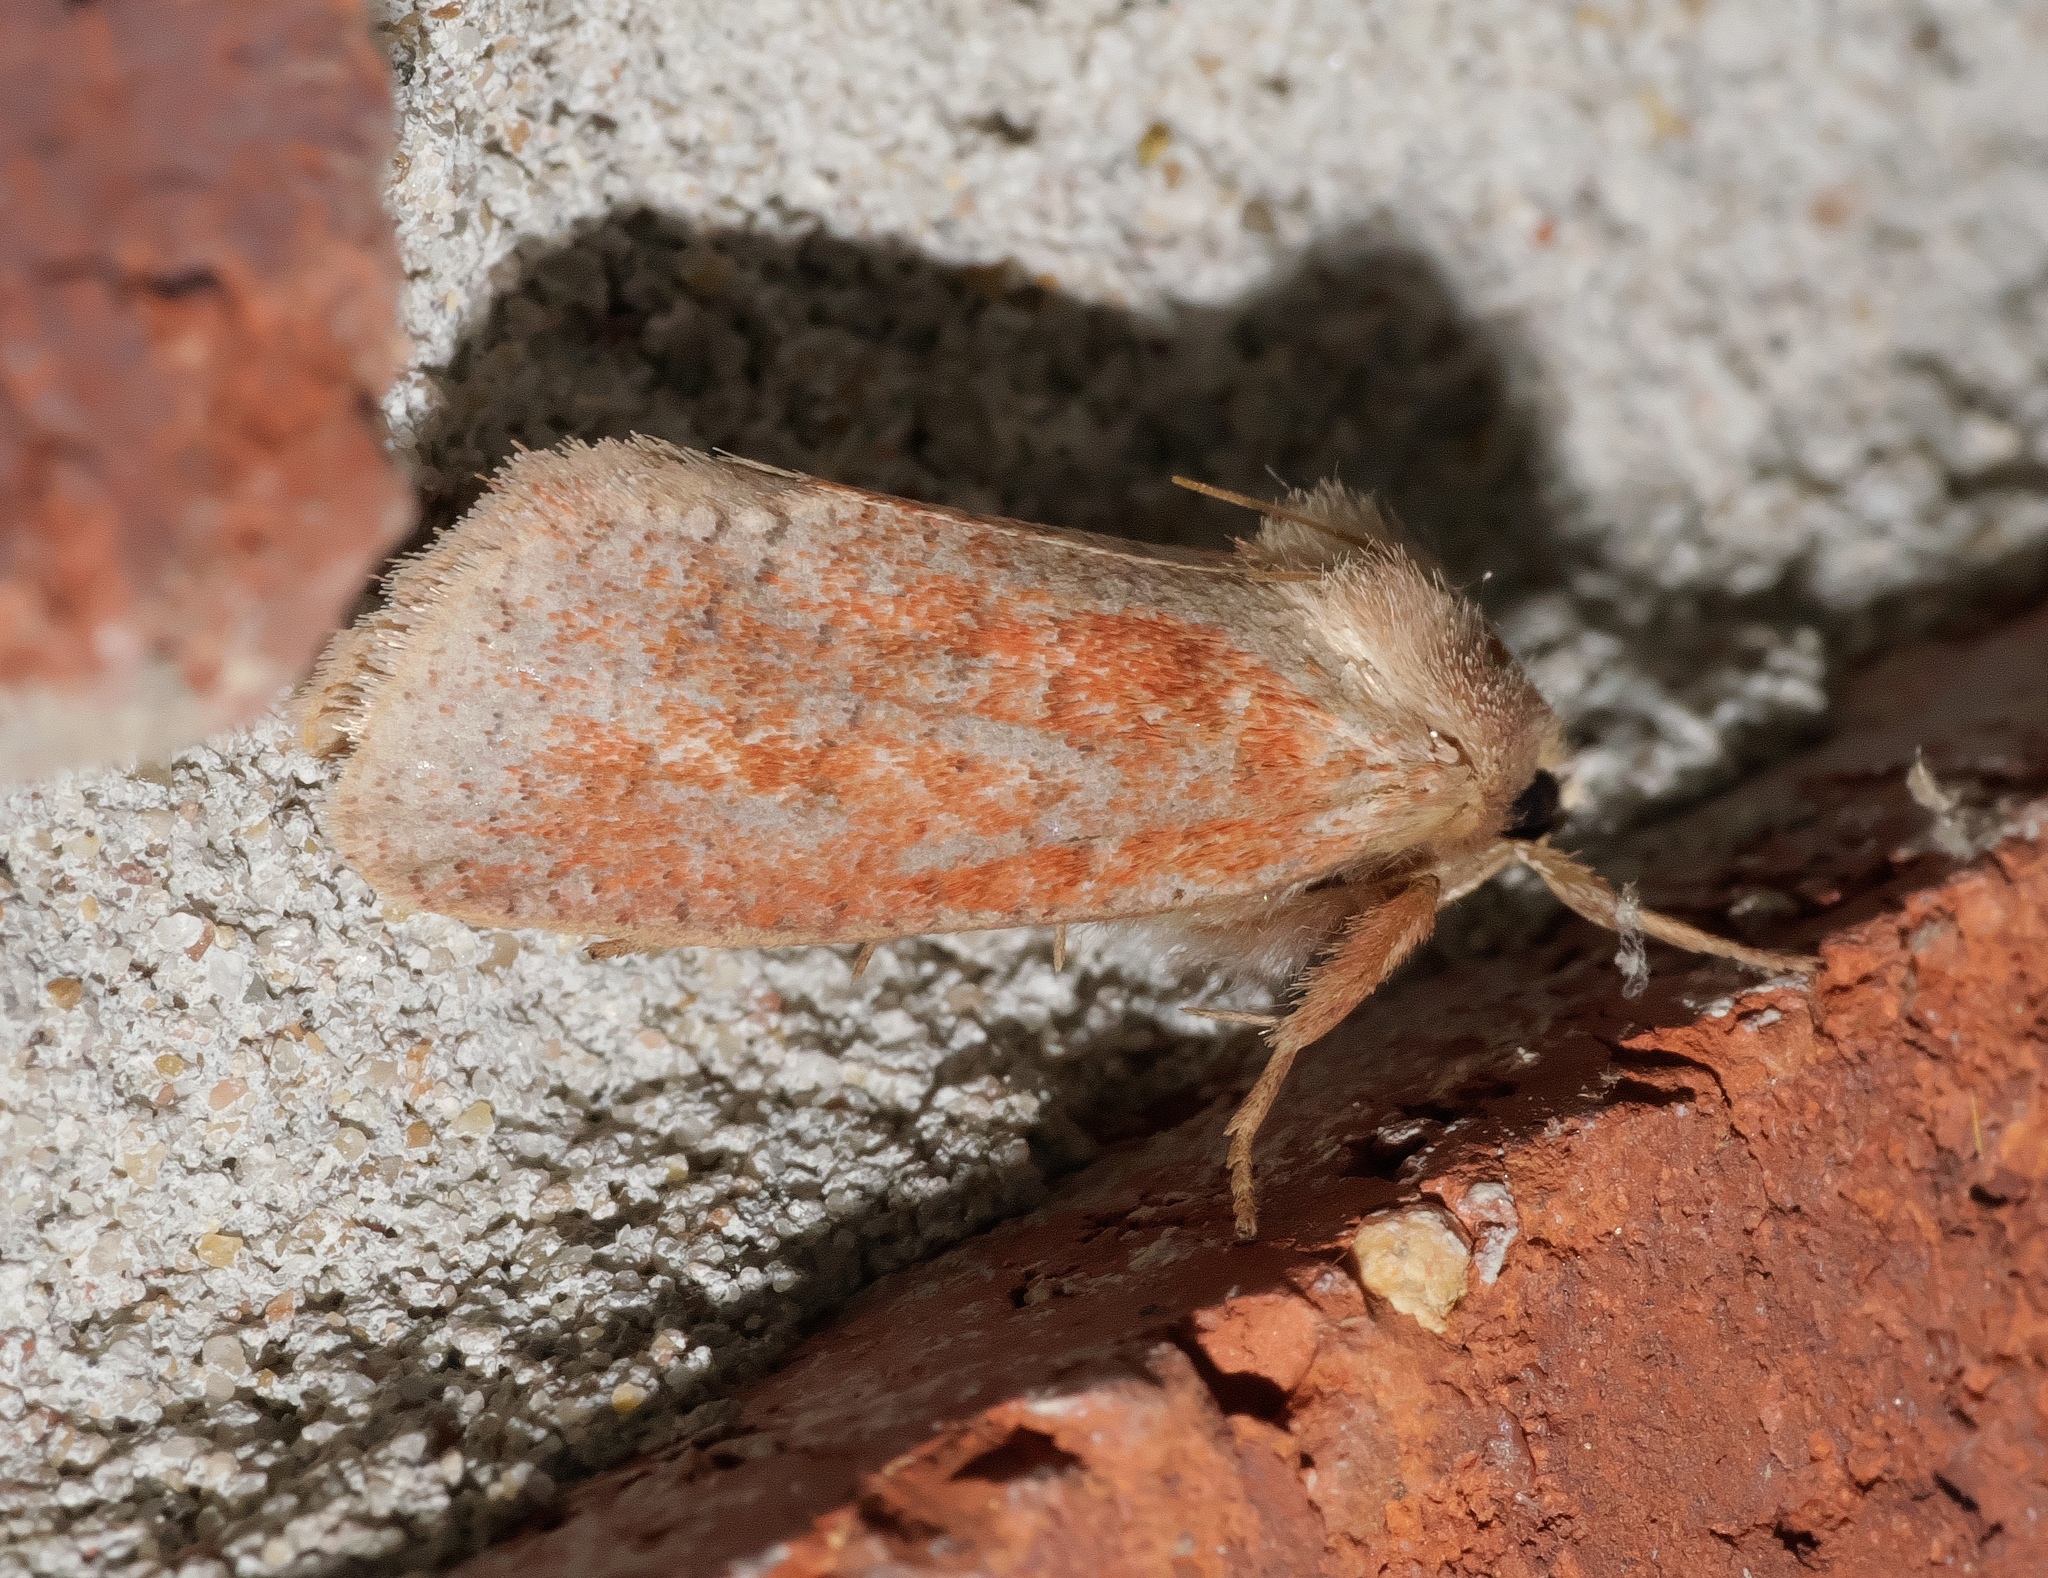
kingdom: Animalia
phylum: Arthropoda
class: Insecta
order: Lepidoptera
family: Tineidae
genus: Acrolophus
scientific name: Acrolophus plumifrontella
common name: Eastern grass tubeworm moth
